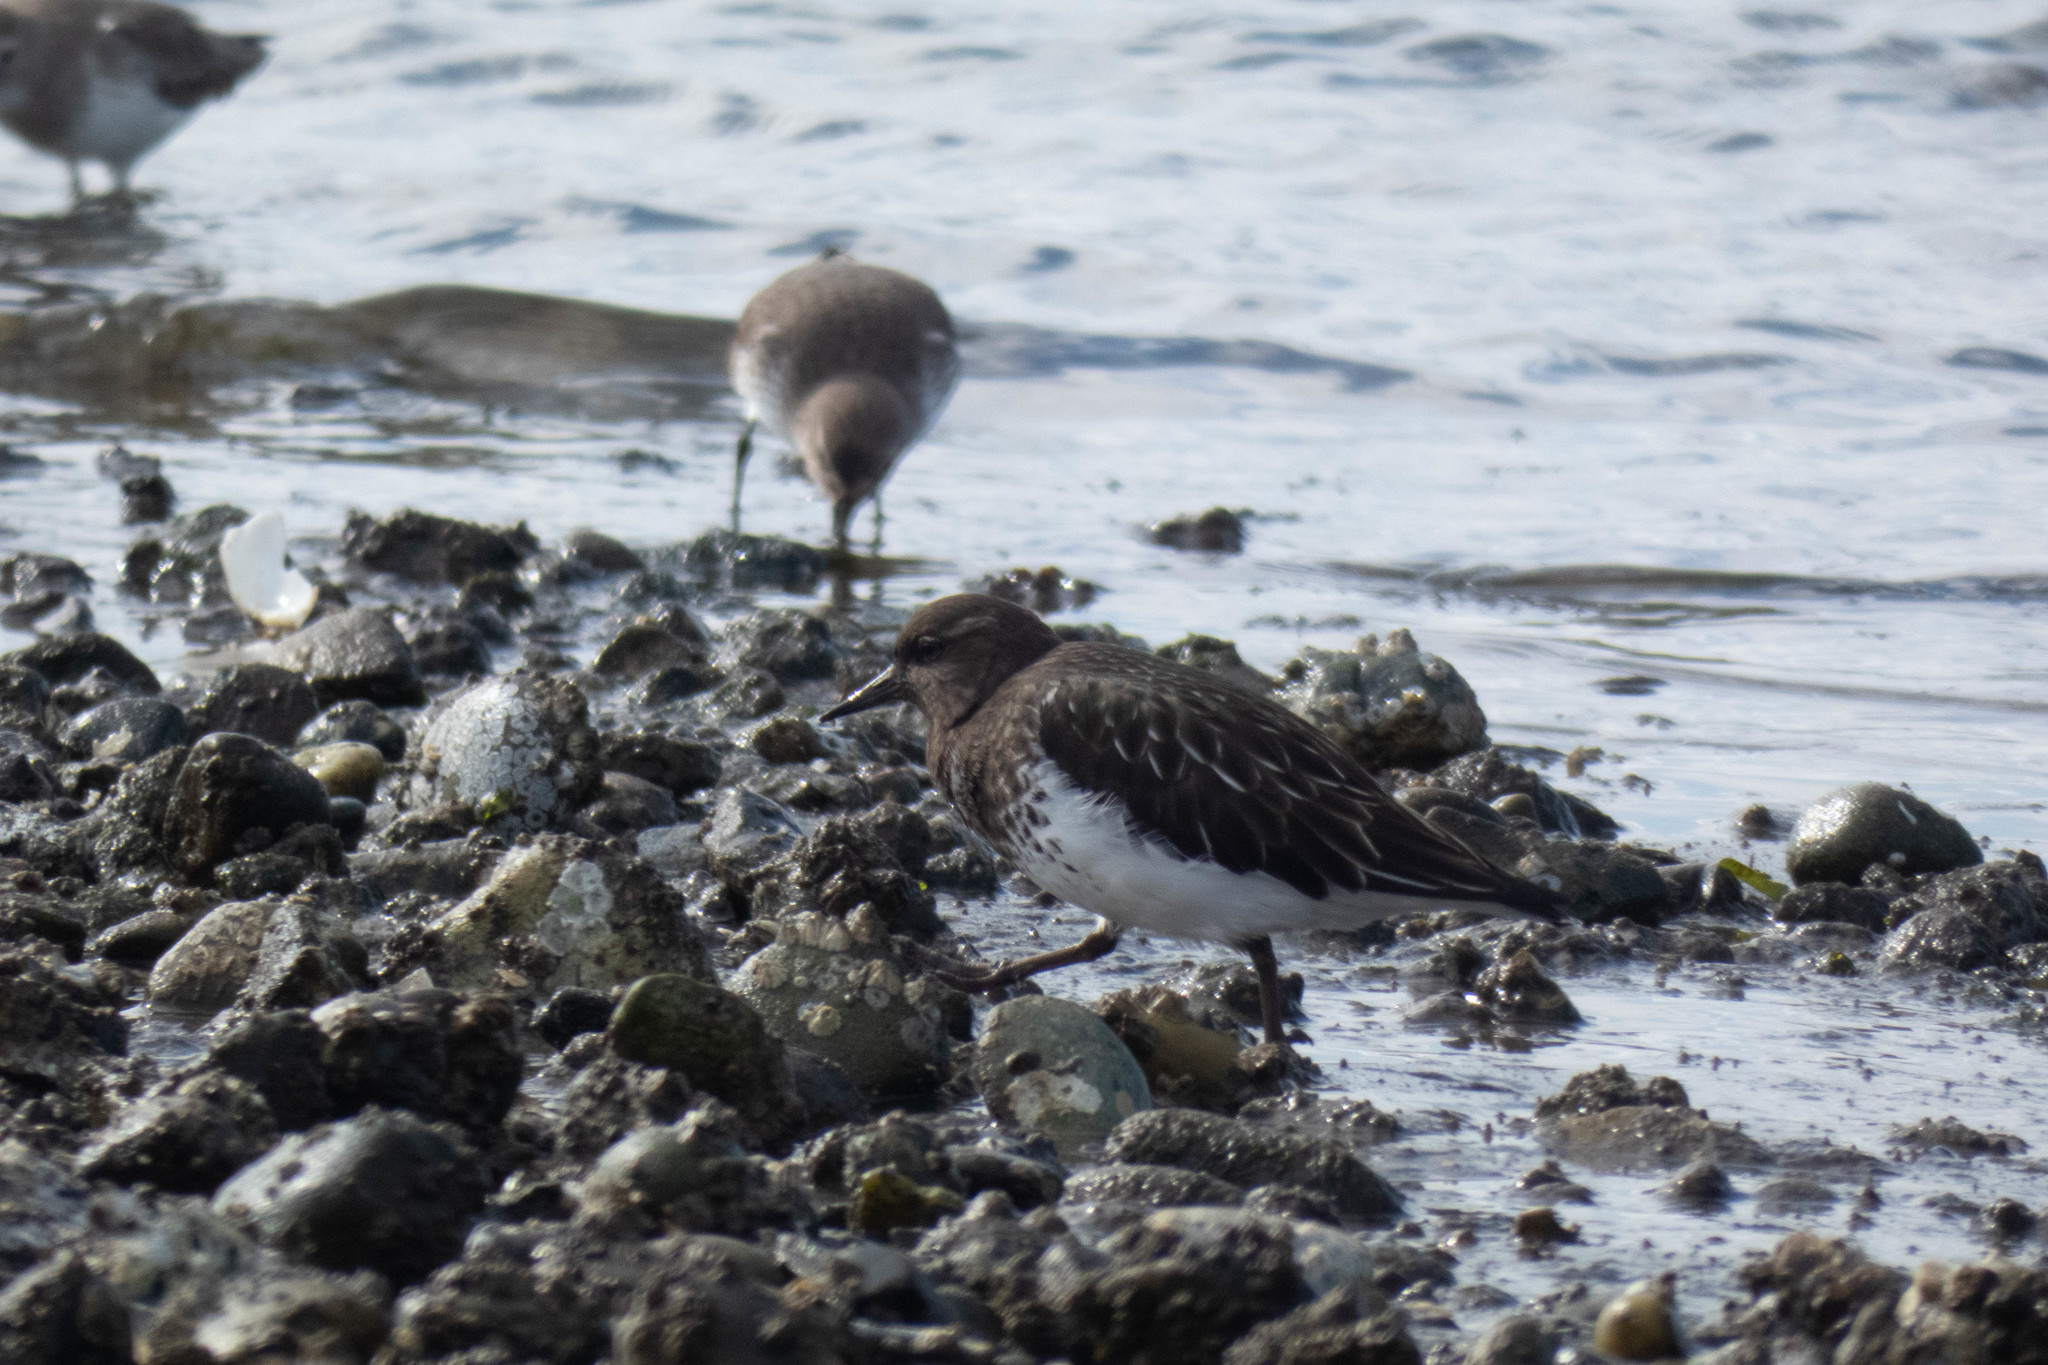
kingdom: Animalia
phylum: Chordata
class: Aves
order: Charadriiformes
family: Scolopacidae
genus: Arenaria
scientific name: Arenaria melanocephala
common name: Black turnstone
